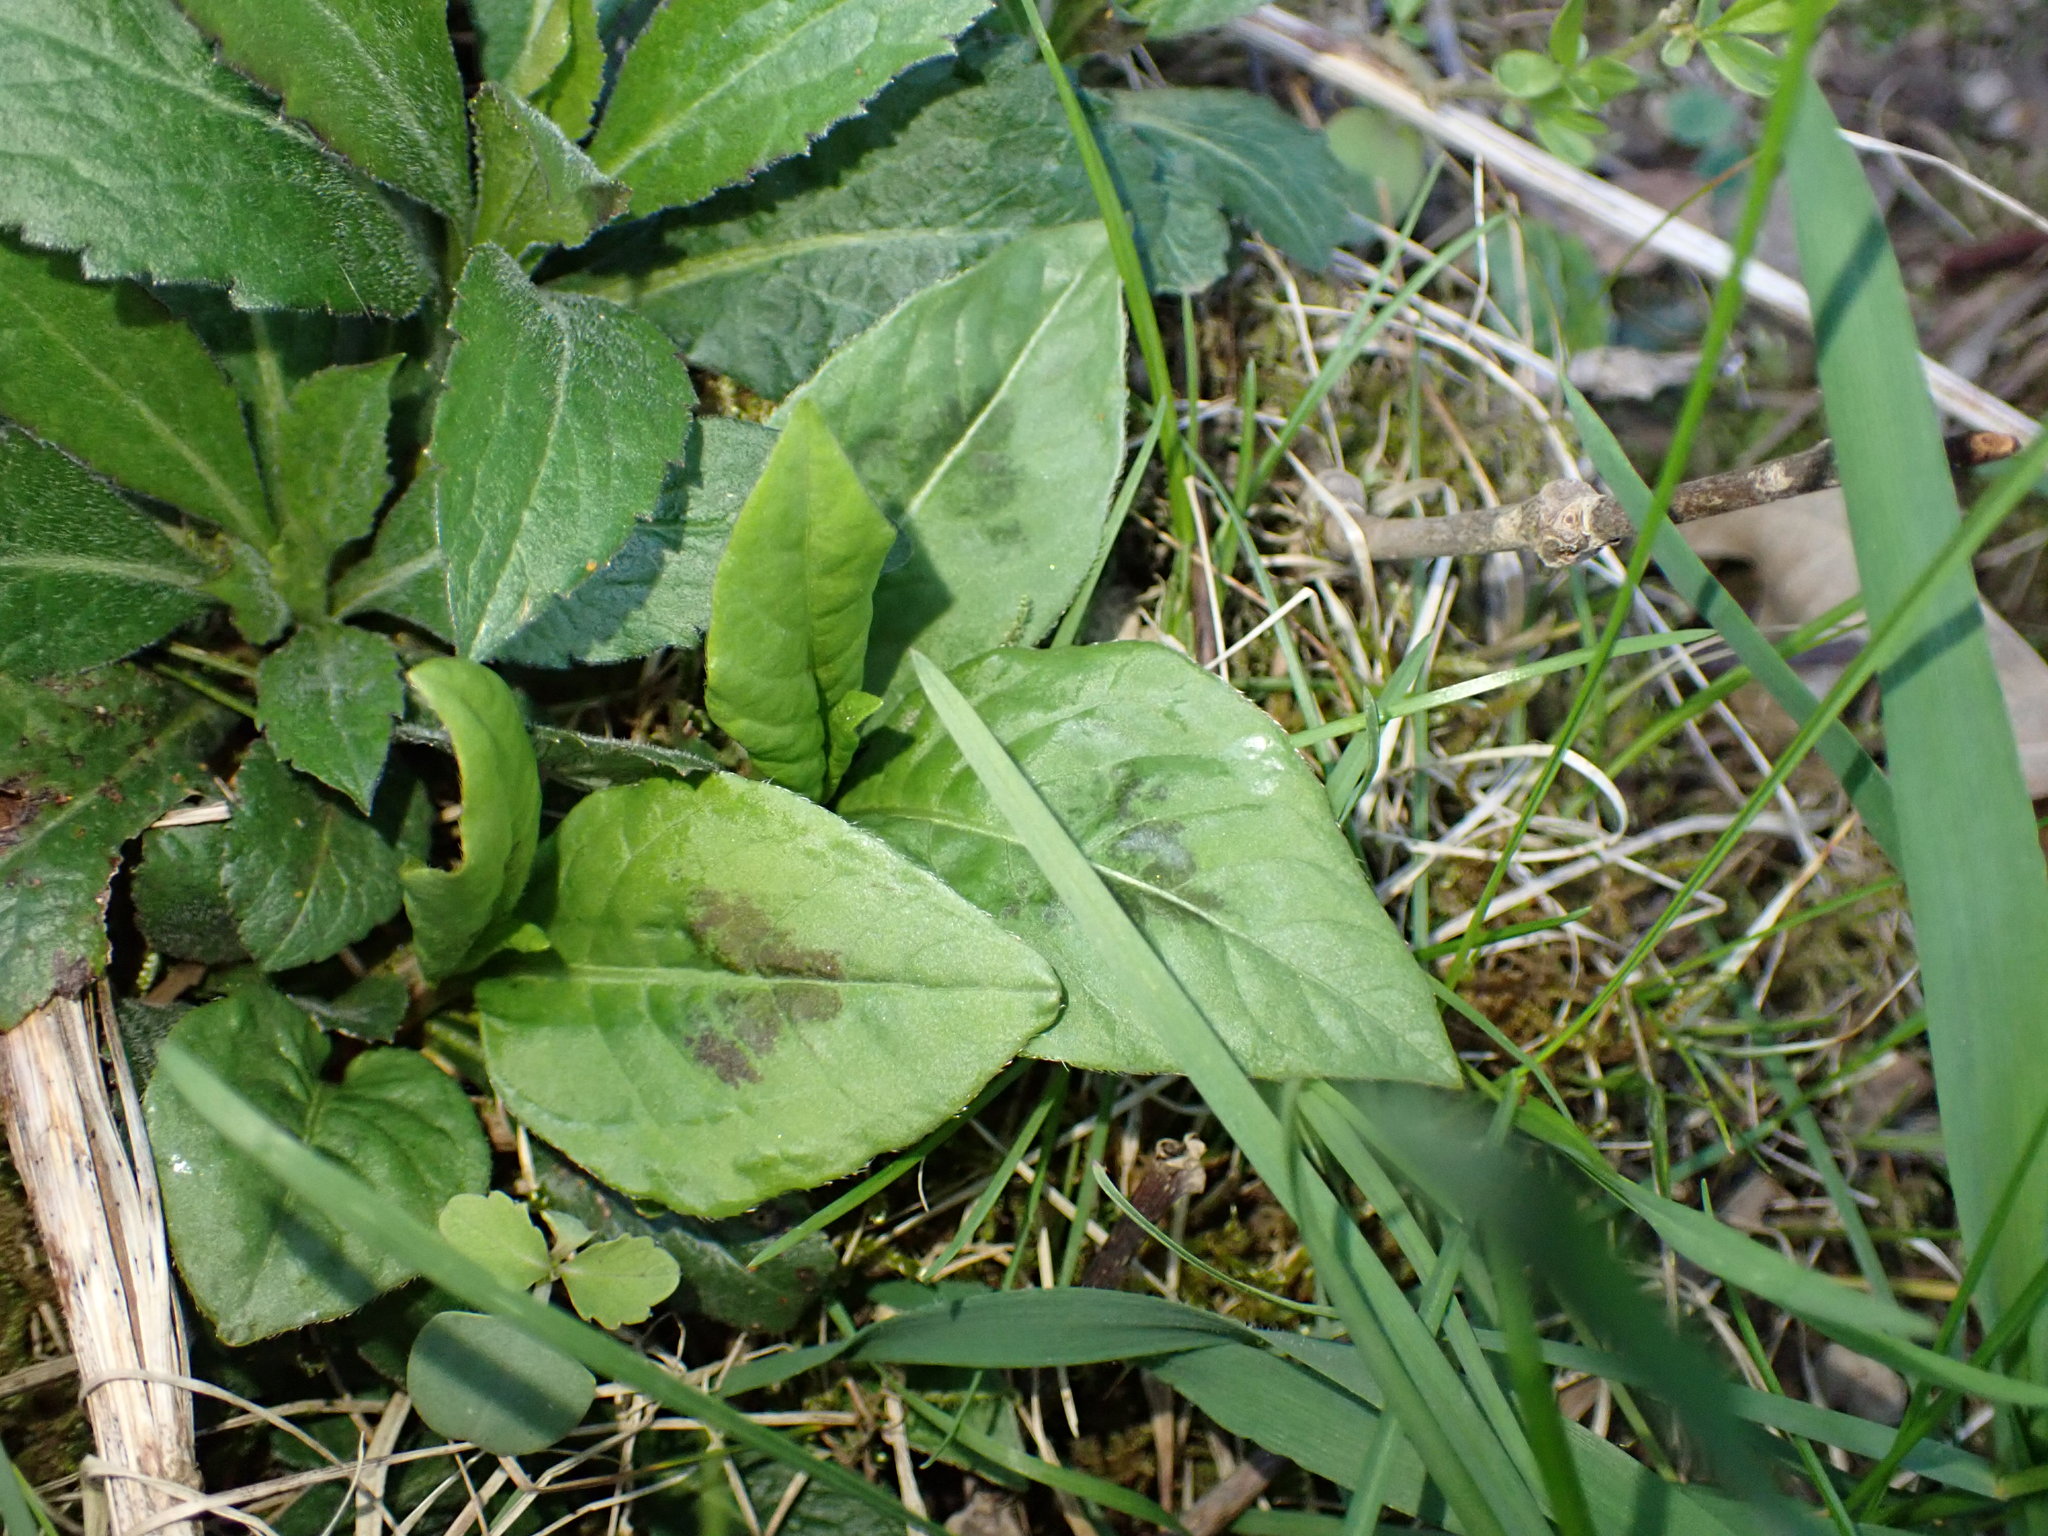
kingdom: Plantae
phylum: Tracheophyta
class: Magnoliopsida
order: Caryophyllales
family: Polygonaceae
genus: Persicaria
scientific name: Persicaria virginiana
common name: Jumpseed
